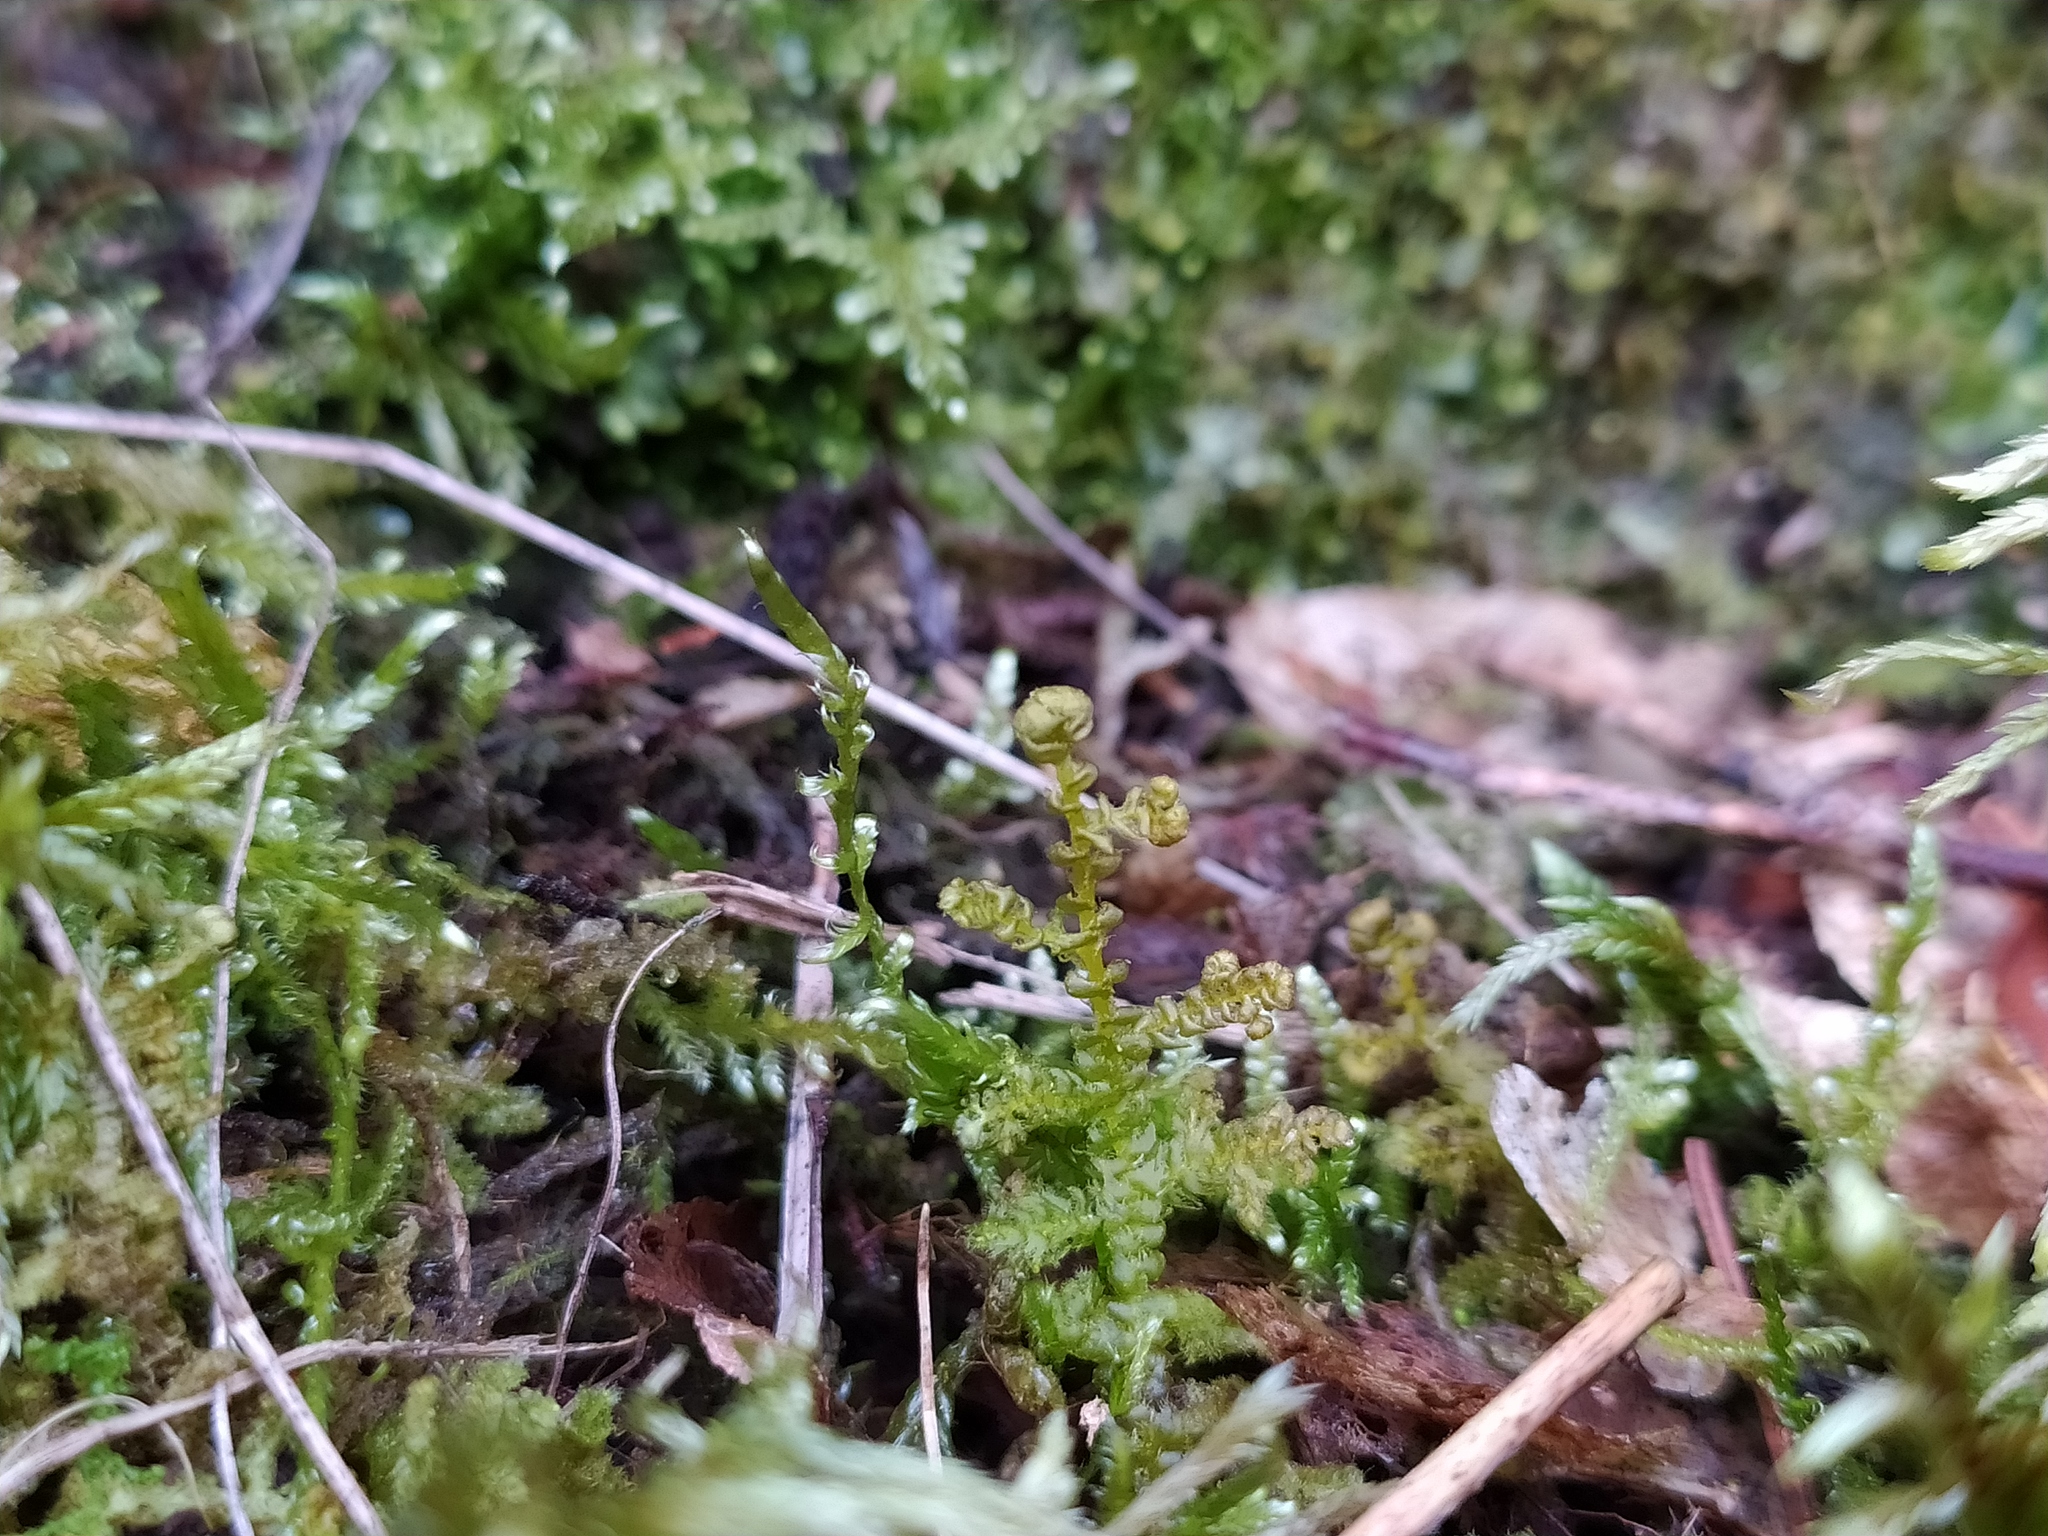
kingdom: Plantae
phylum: Marchantiophyta
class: Jungermanniopsida
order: Ptilidiales
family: Ptilidiaceae
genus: Ptilidium
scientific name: Ptilidium ciliare
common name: Ciliate fringewort
